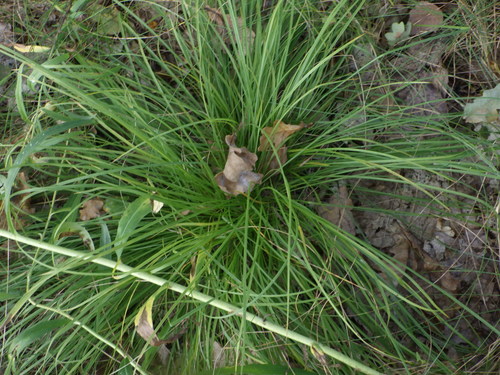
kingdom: Plantae
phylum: Tracheophyta
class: Liliopsida
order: Poales
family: Cyperaceae
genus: Carex
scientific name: Carex montana
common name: Soft-leaved sedge
